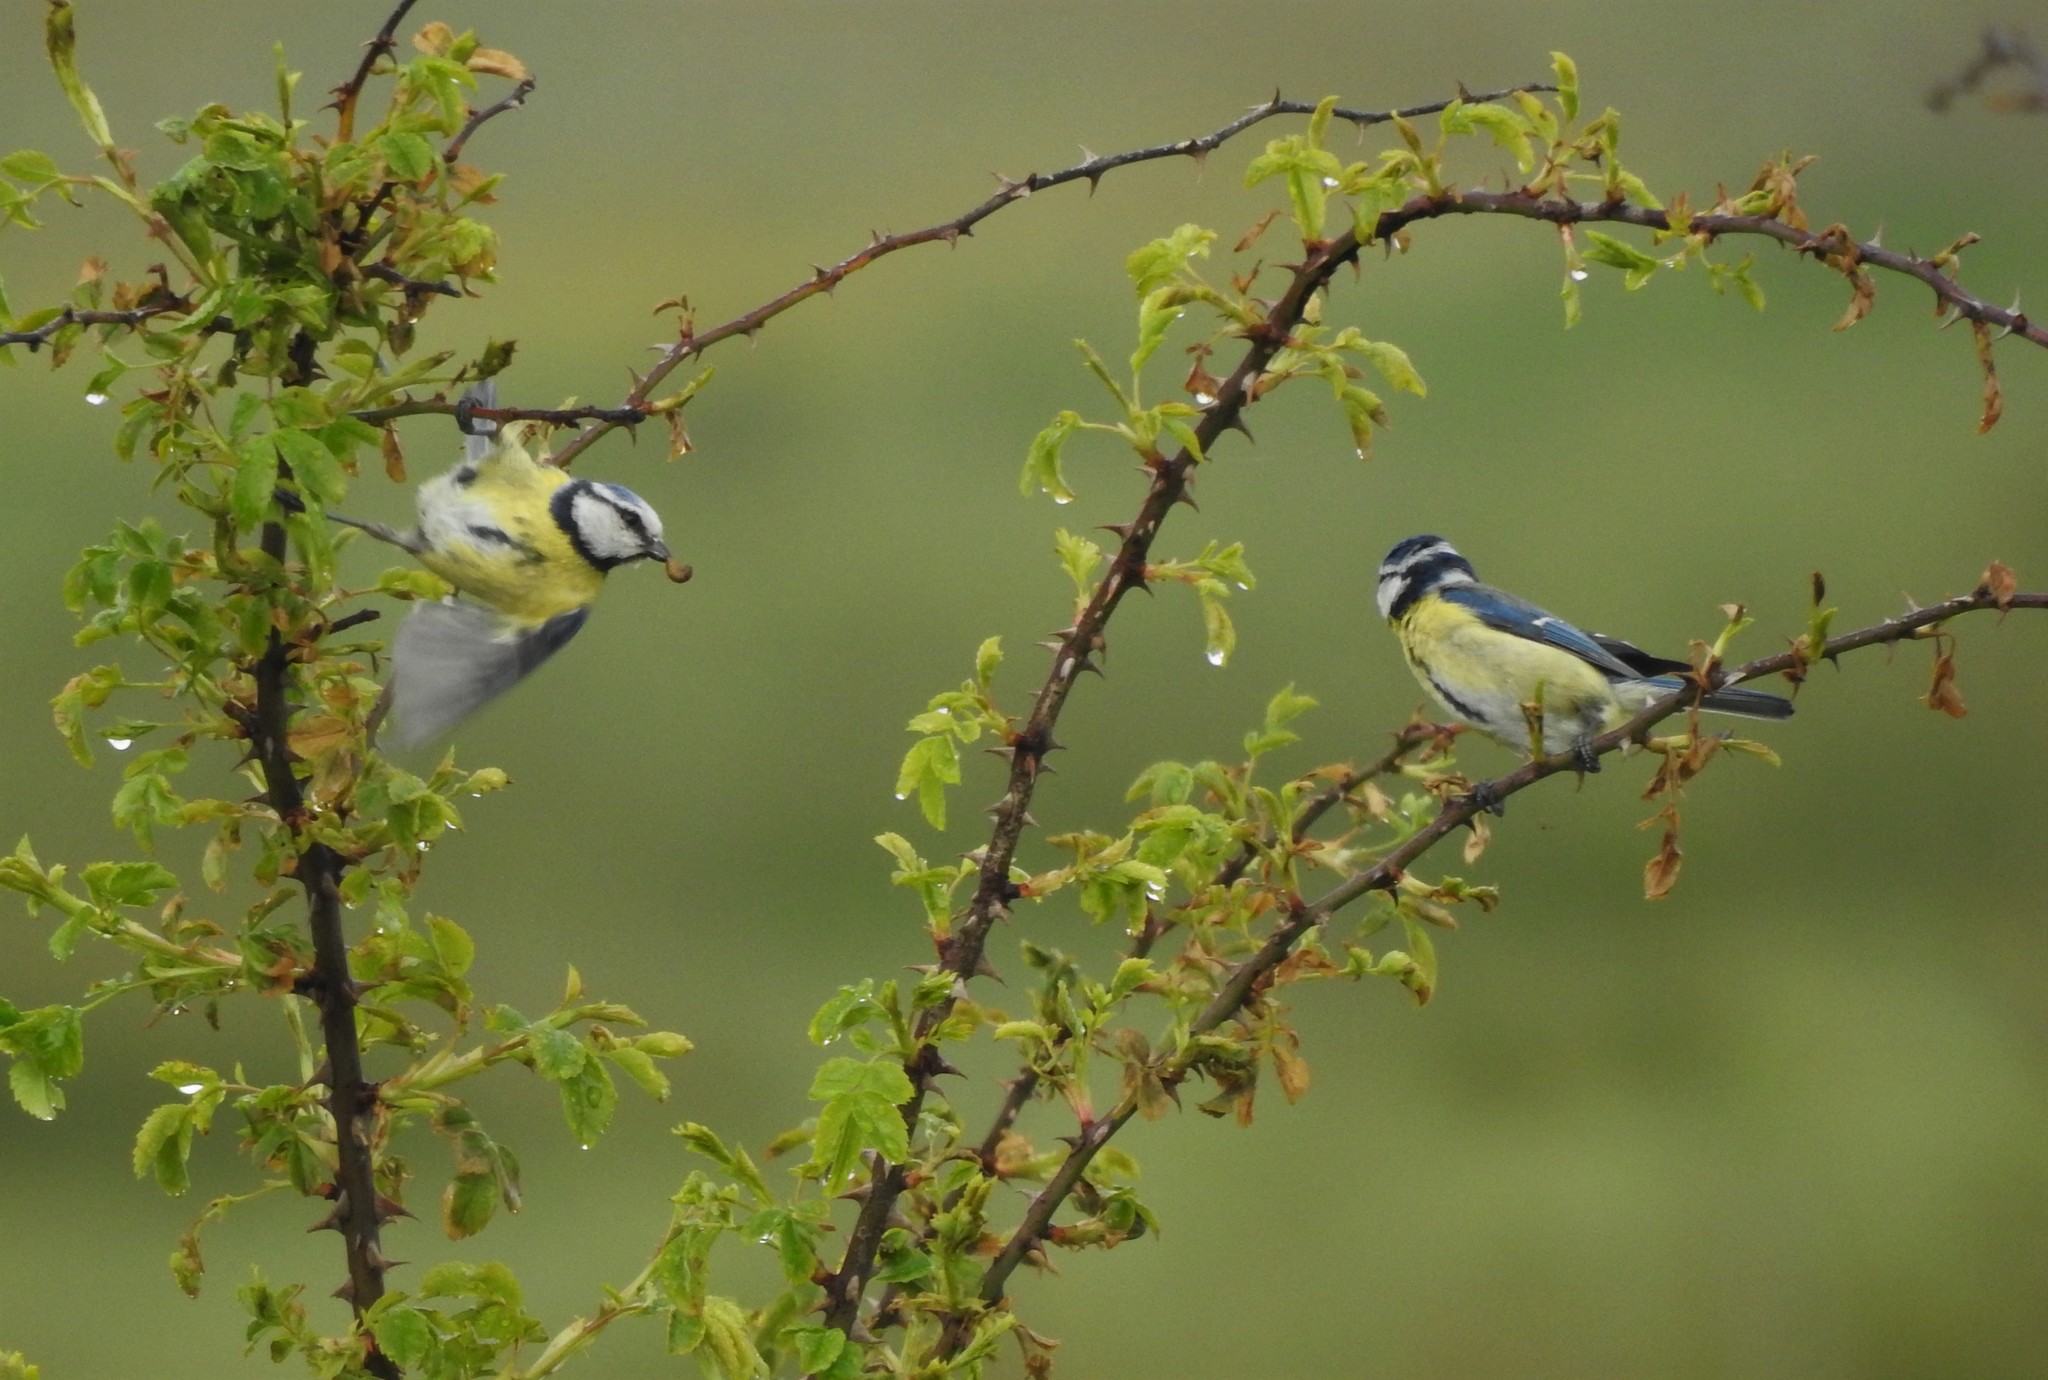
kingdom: Animalia
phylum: Chordata
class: Aves
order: Passeriformes
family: Paridae
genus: Cyanistes
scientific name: Cyanistes caeruleus
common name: Eurasian blue tit
